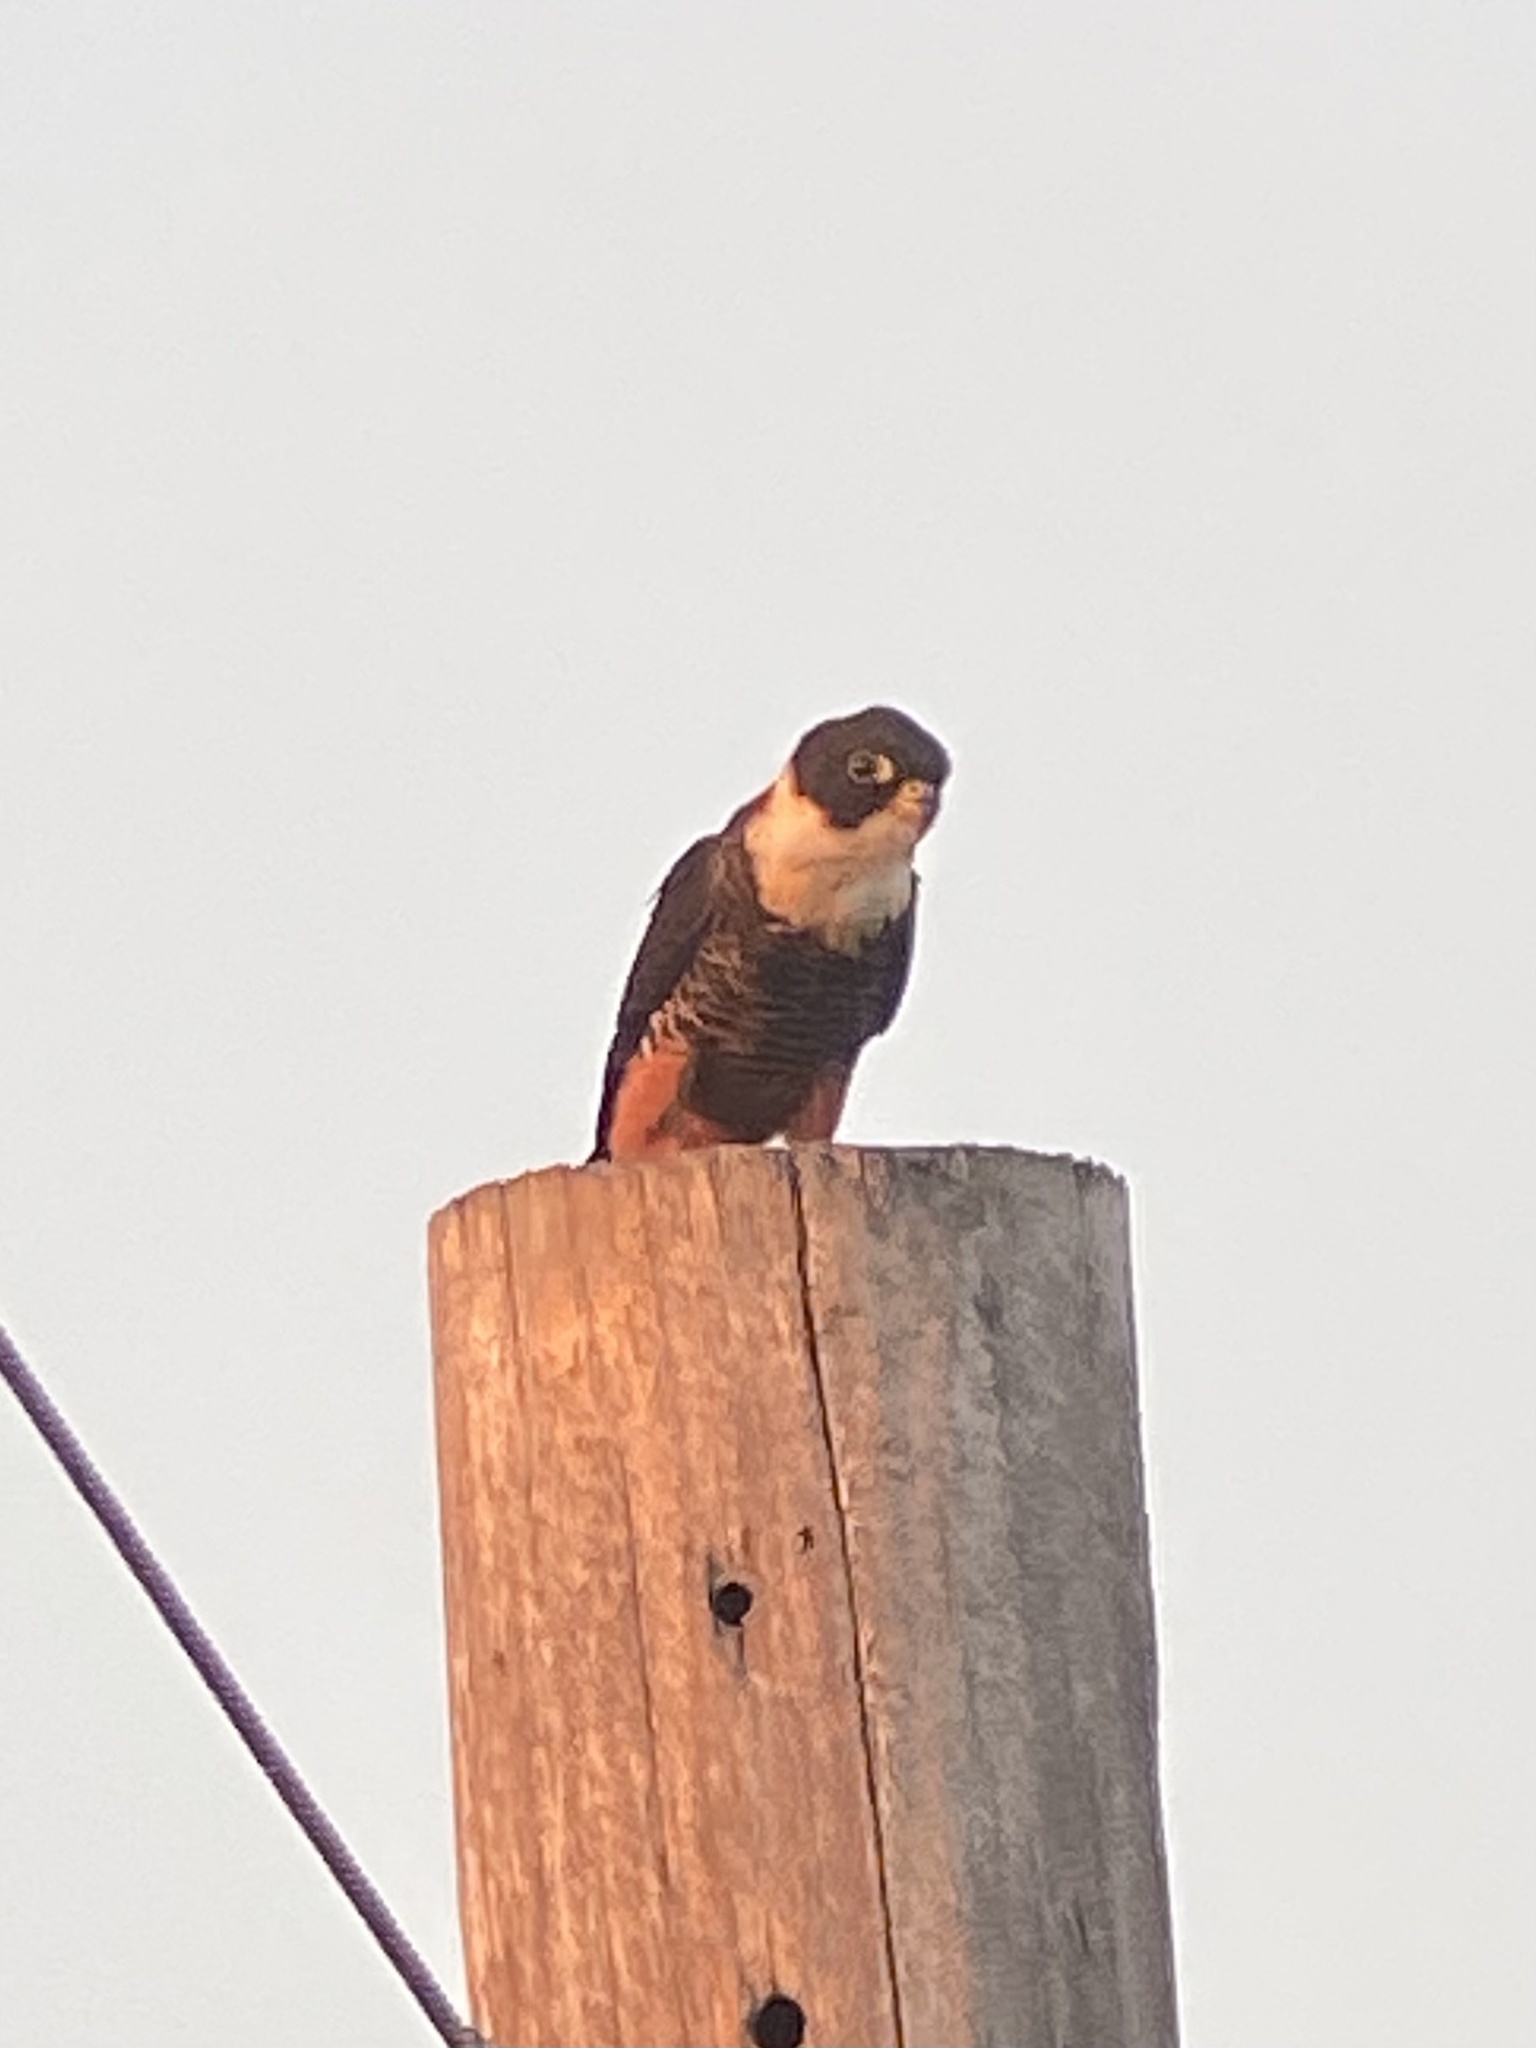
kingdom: Animalia
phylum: Chordata
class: Aves
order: Falconiformes
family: Falconidae
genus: Falco
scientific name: Falco rufigularis
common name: Bat falcon
